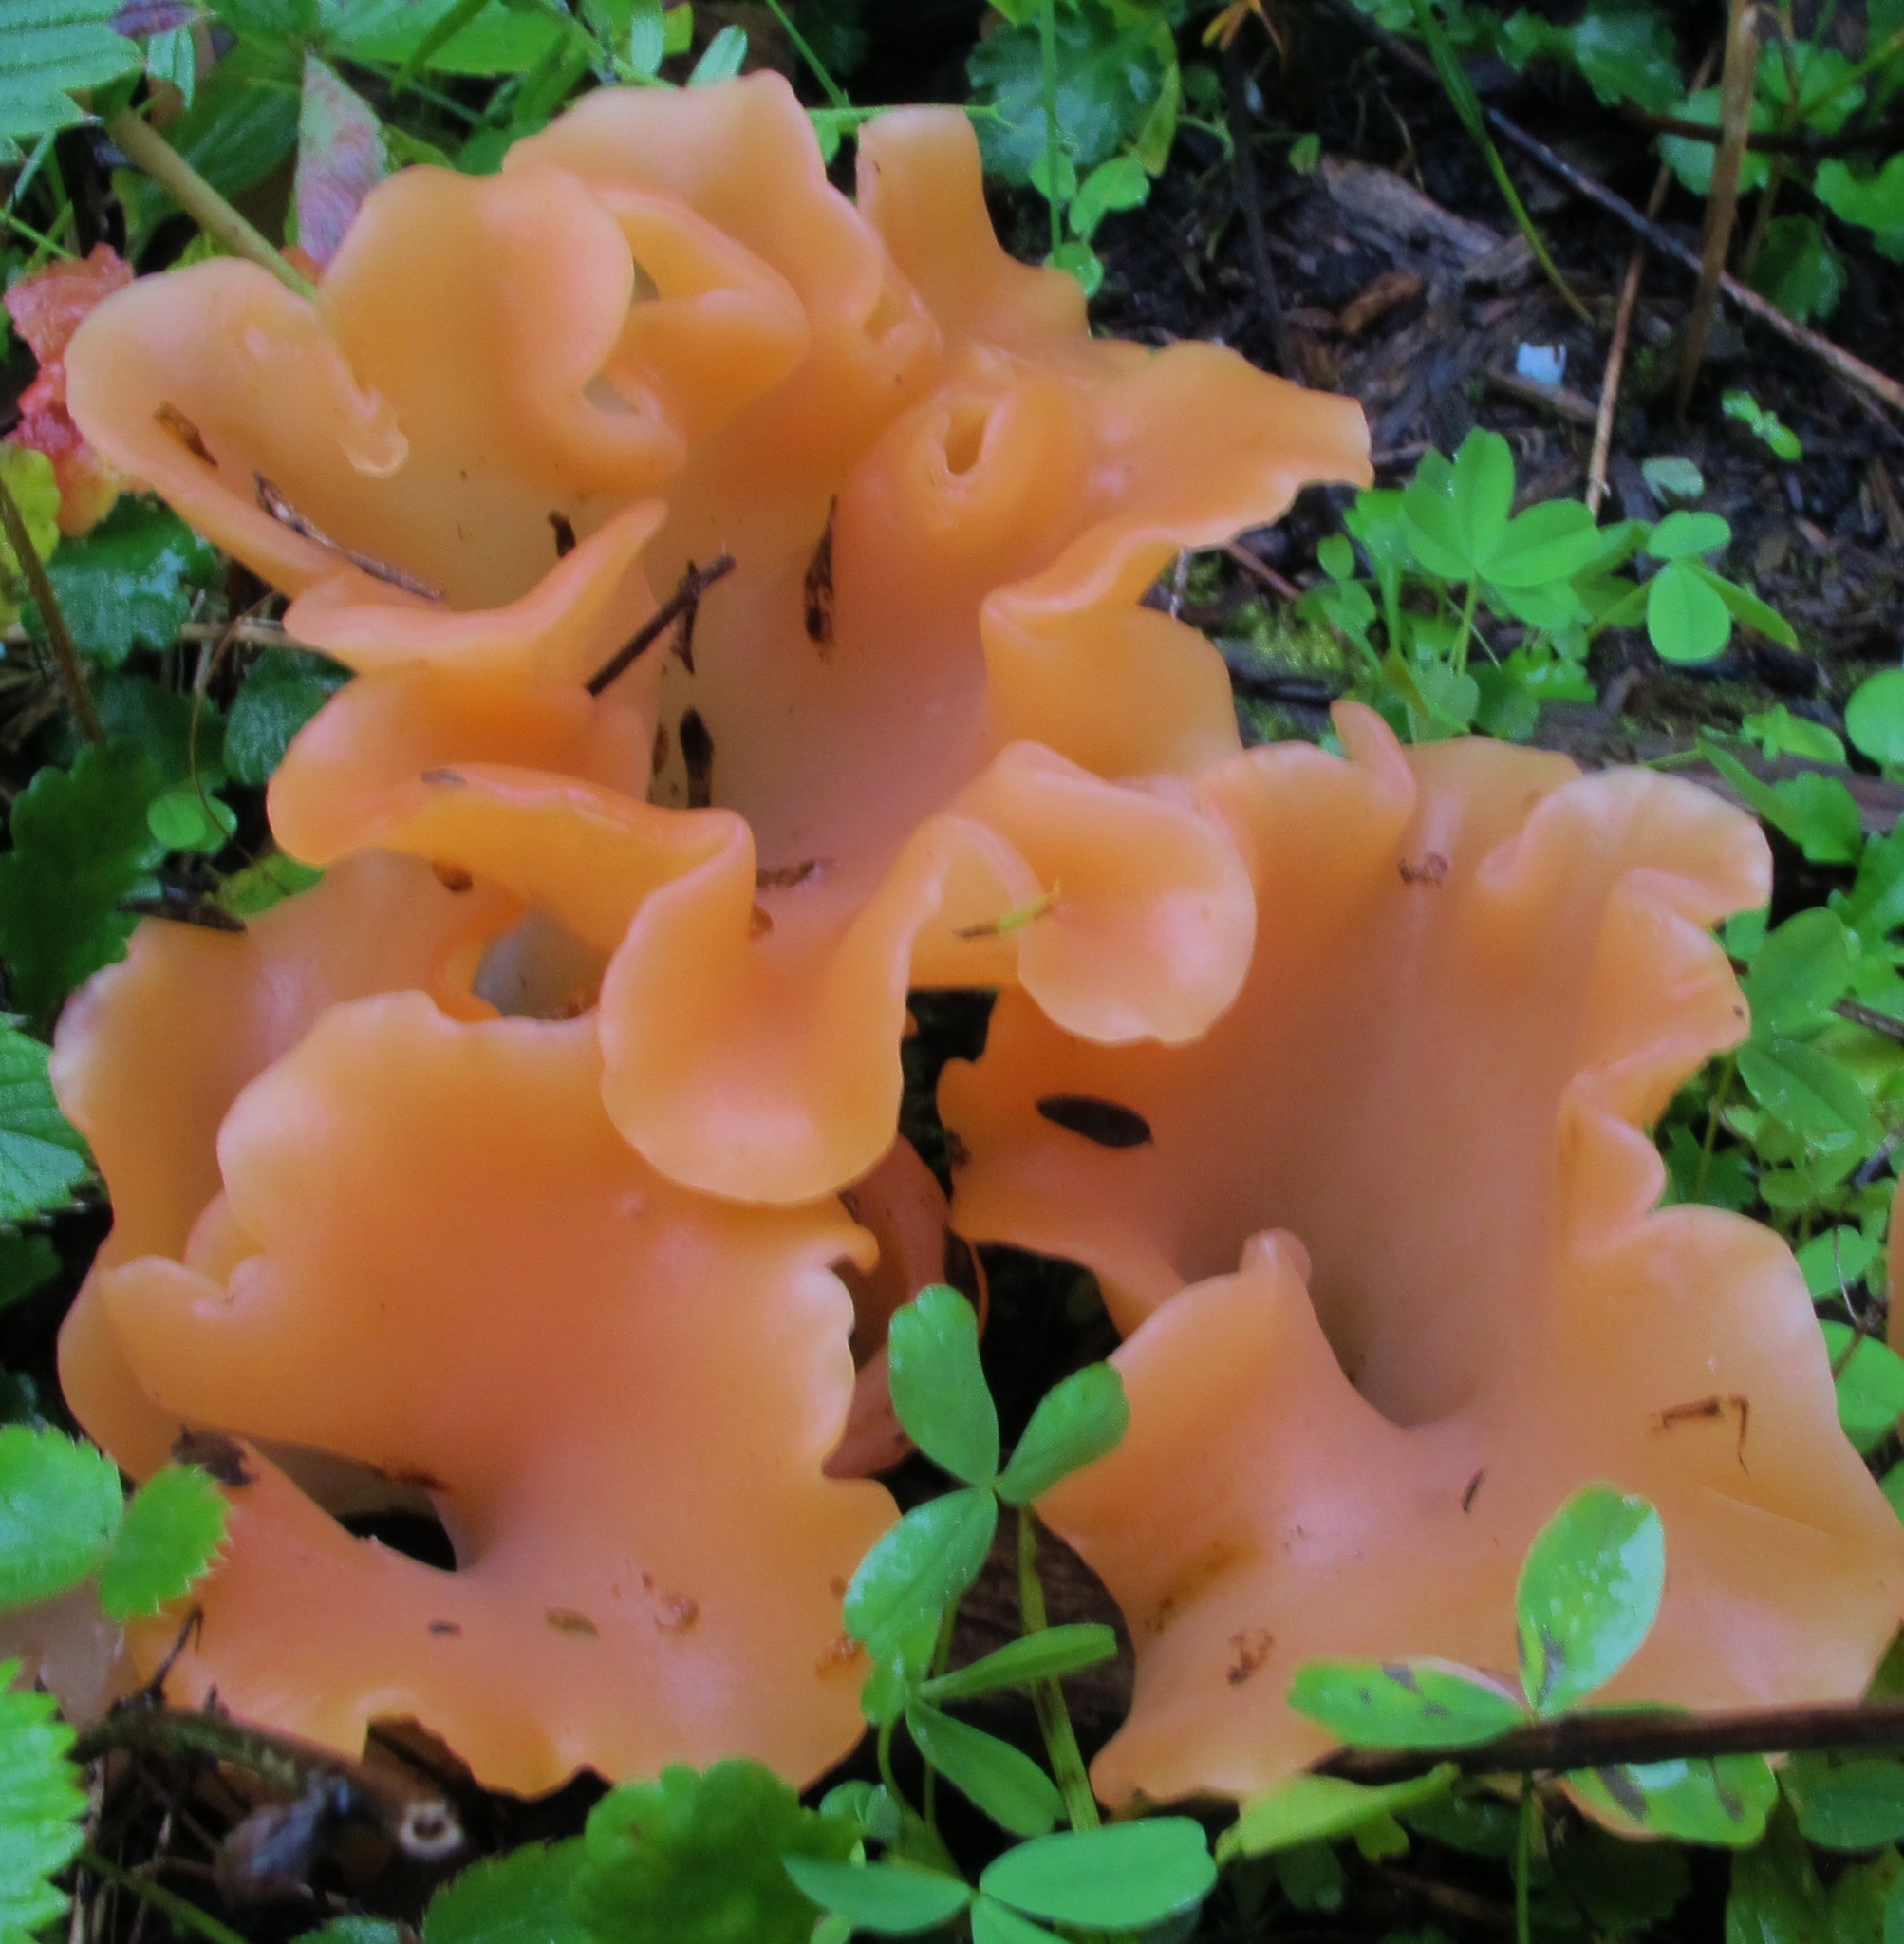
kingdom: Fungi
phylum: Basidiomycota
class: Agaricomycetes
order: Auriculariales
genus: Guepinia
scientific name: Guepinia helvelloides
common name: Salmon salad
